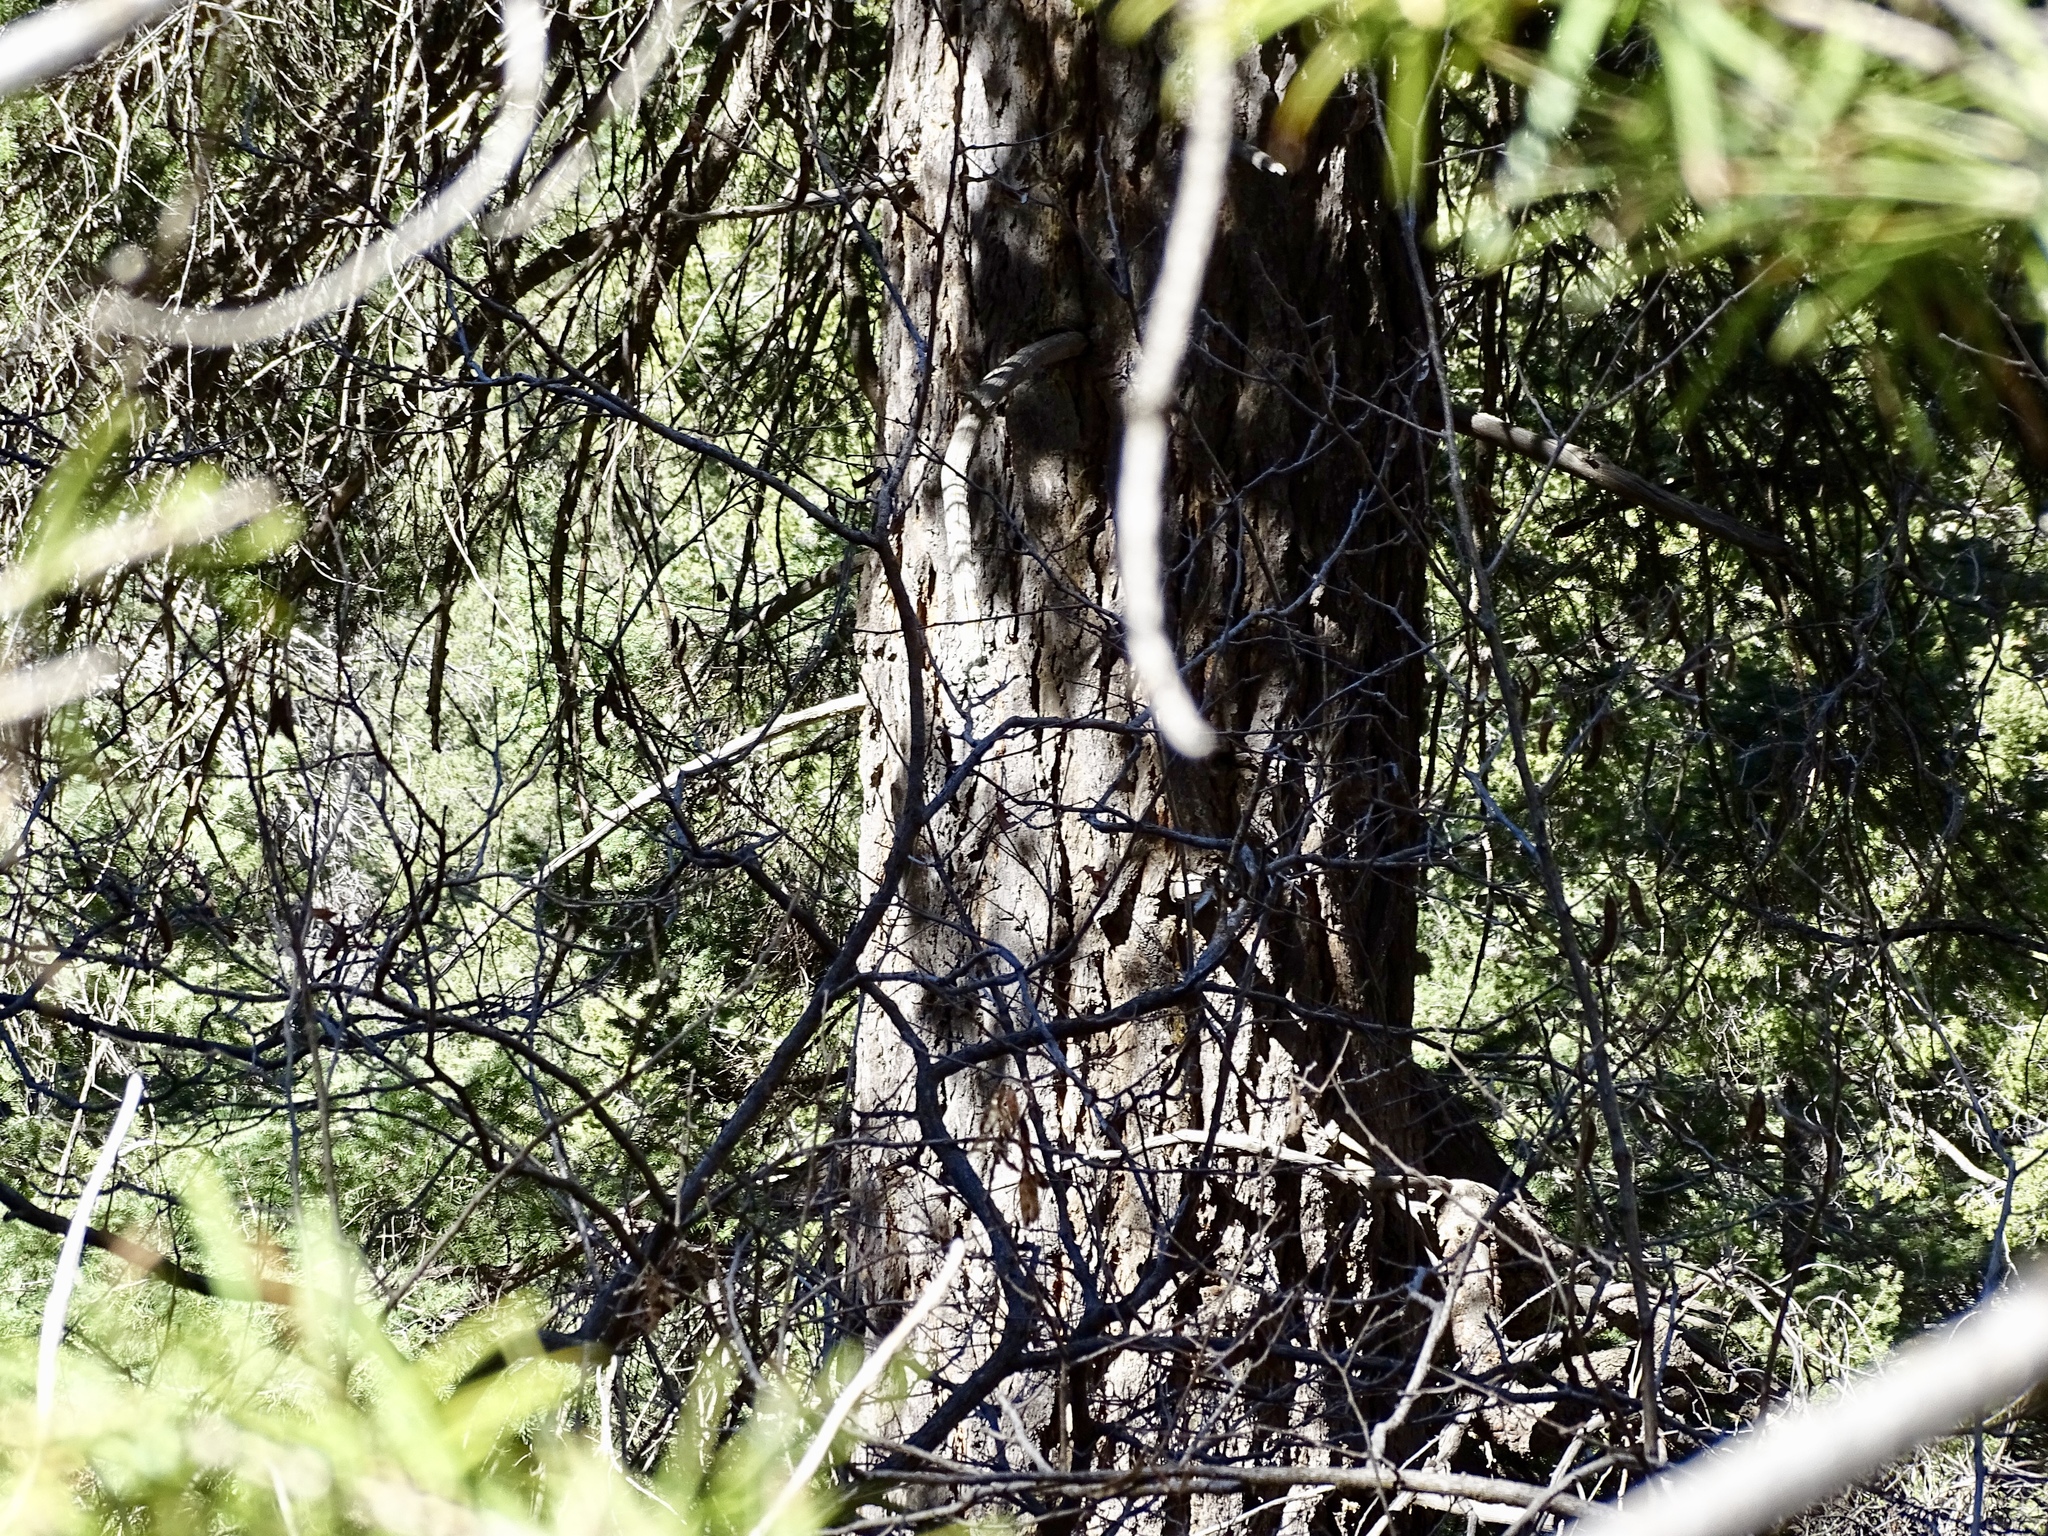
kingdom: Plantae
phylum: Tracheophyta
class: Pinopsida
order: Pinales
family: Pinaceae
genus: Pseudotsuga
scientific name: Pseudotsuga menziesii
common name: Douglas fir
